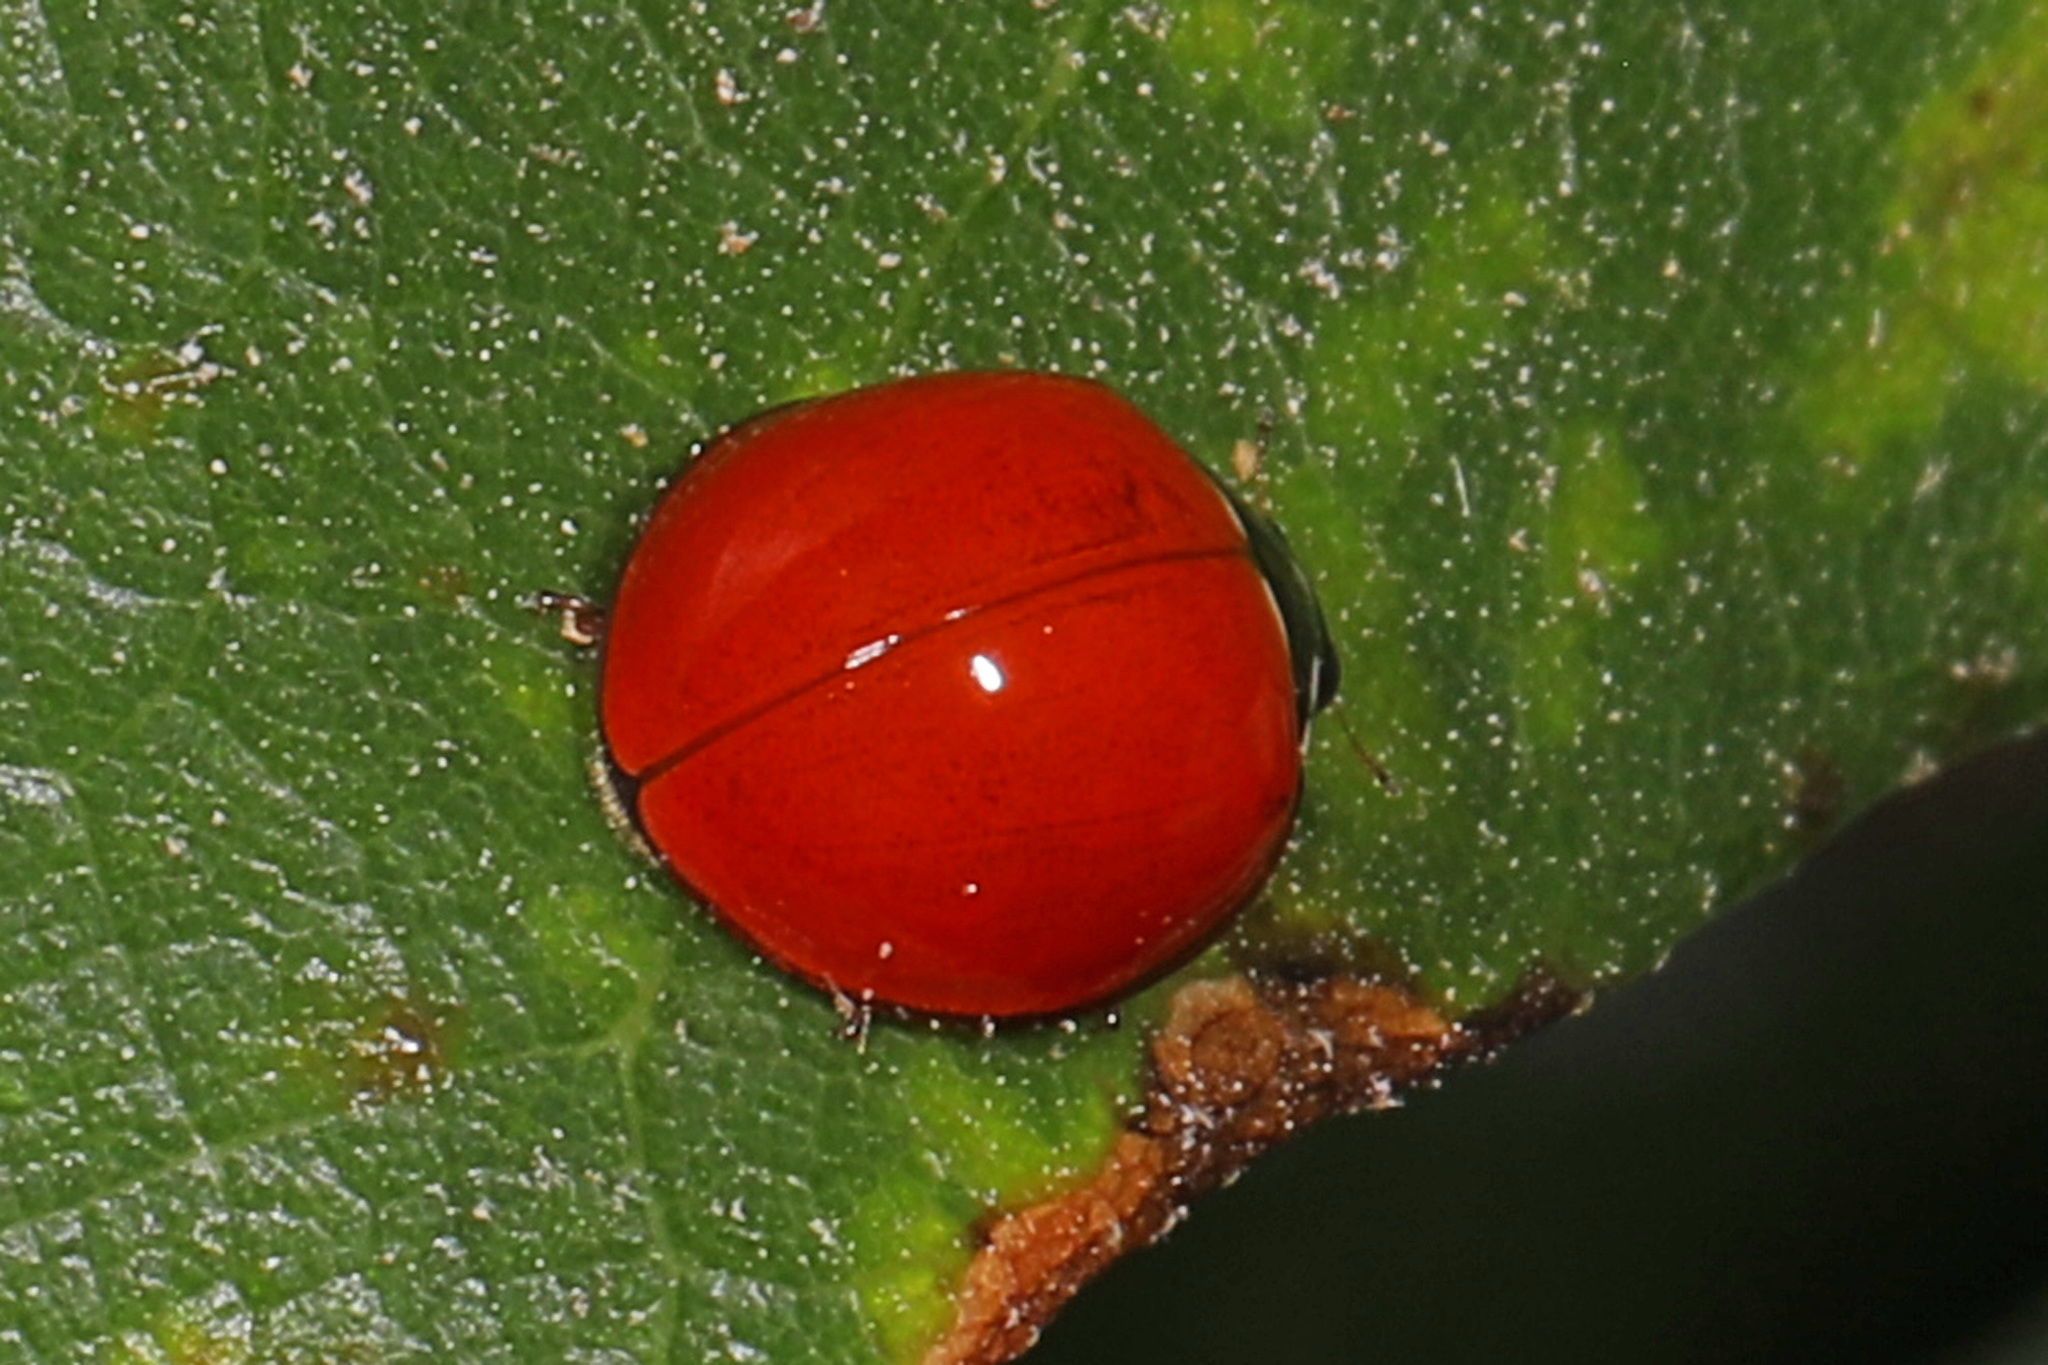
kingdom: Animalia
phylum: Arthropoda
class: Insecta
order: Coleoptera
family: Coccinellidae
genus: Cycloneda
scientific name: Cycloneda
